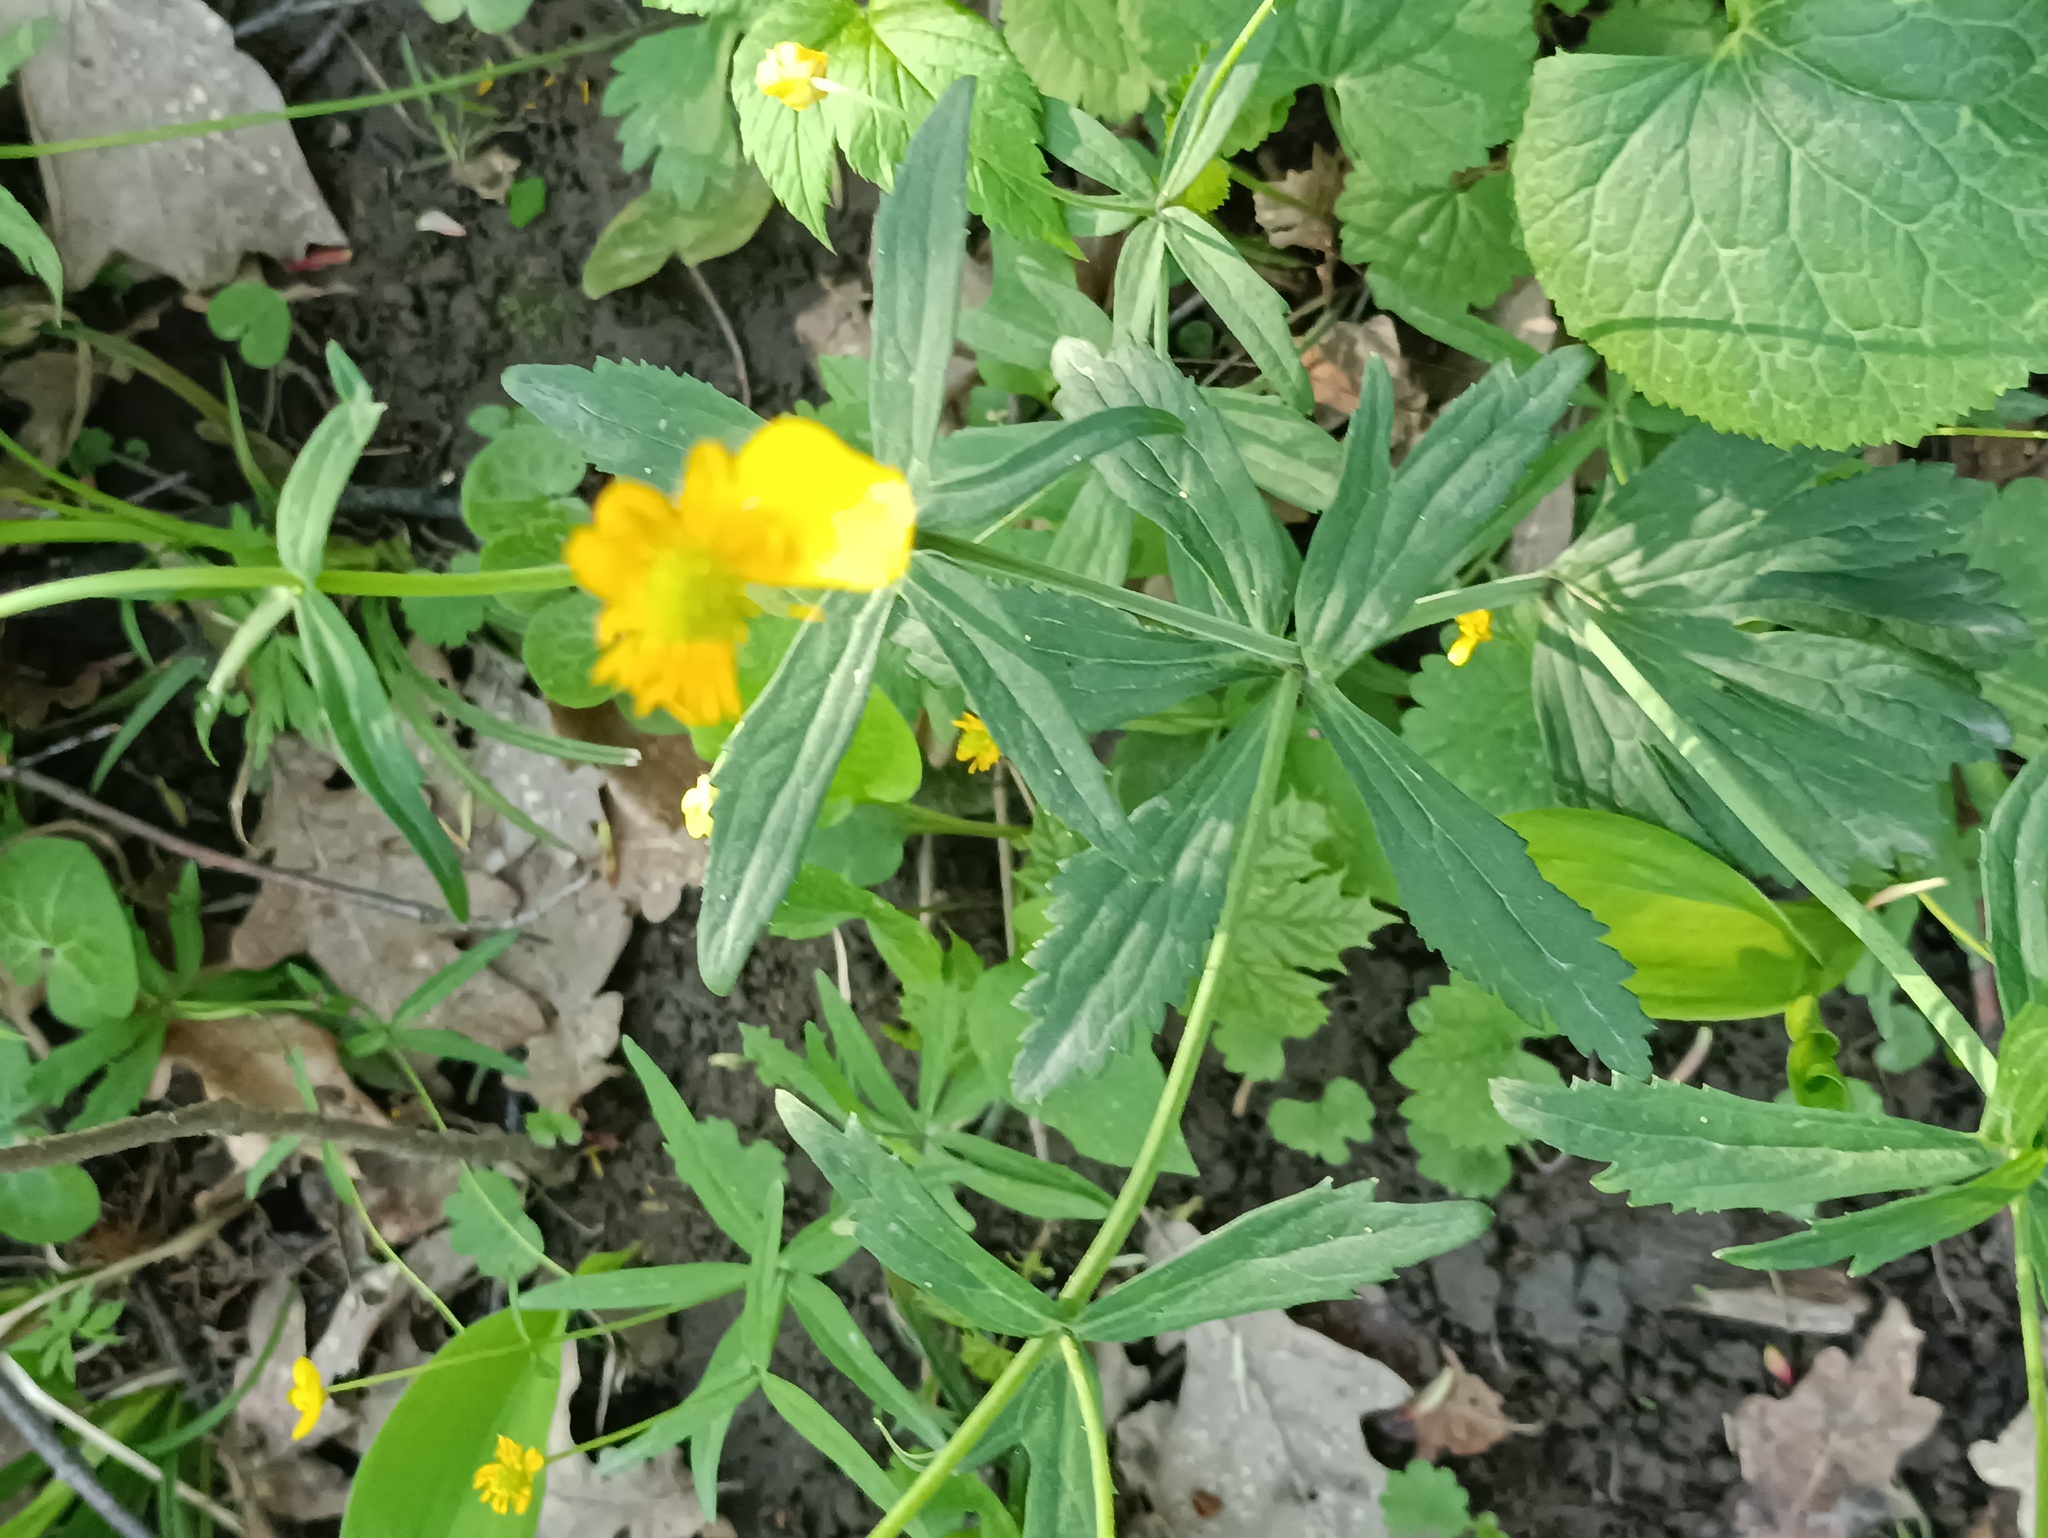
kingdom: Plantae
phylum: Tracheophyta
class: Magnoliopsida
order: Ranunculales
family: Ranunculaceae
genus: Ranunculus
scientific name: Ranunculus cassubicus
